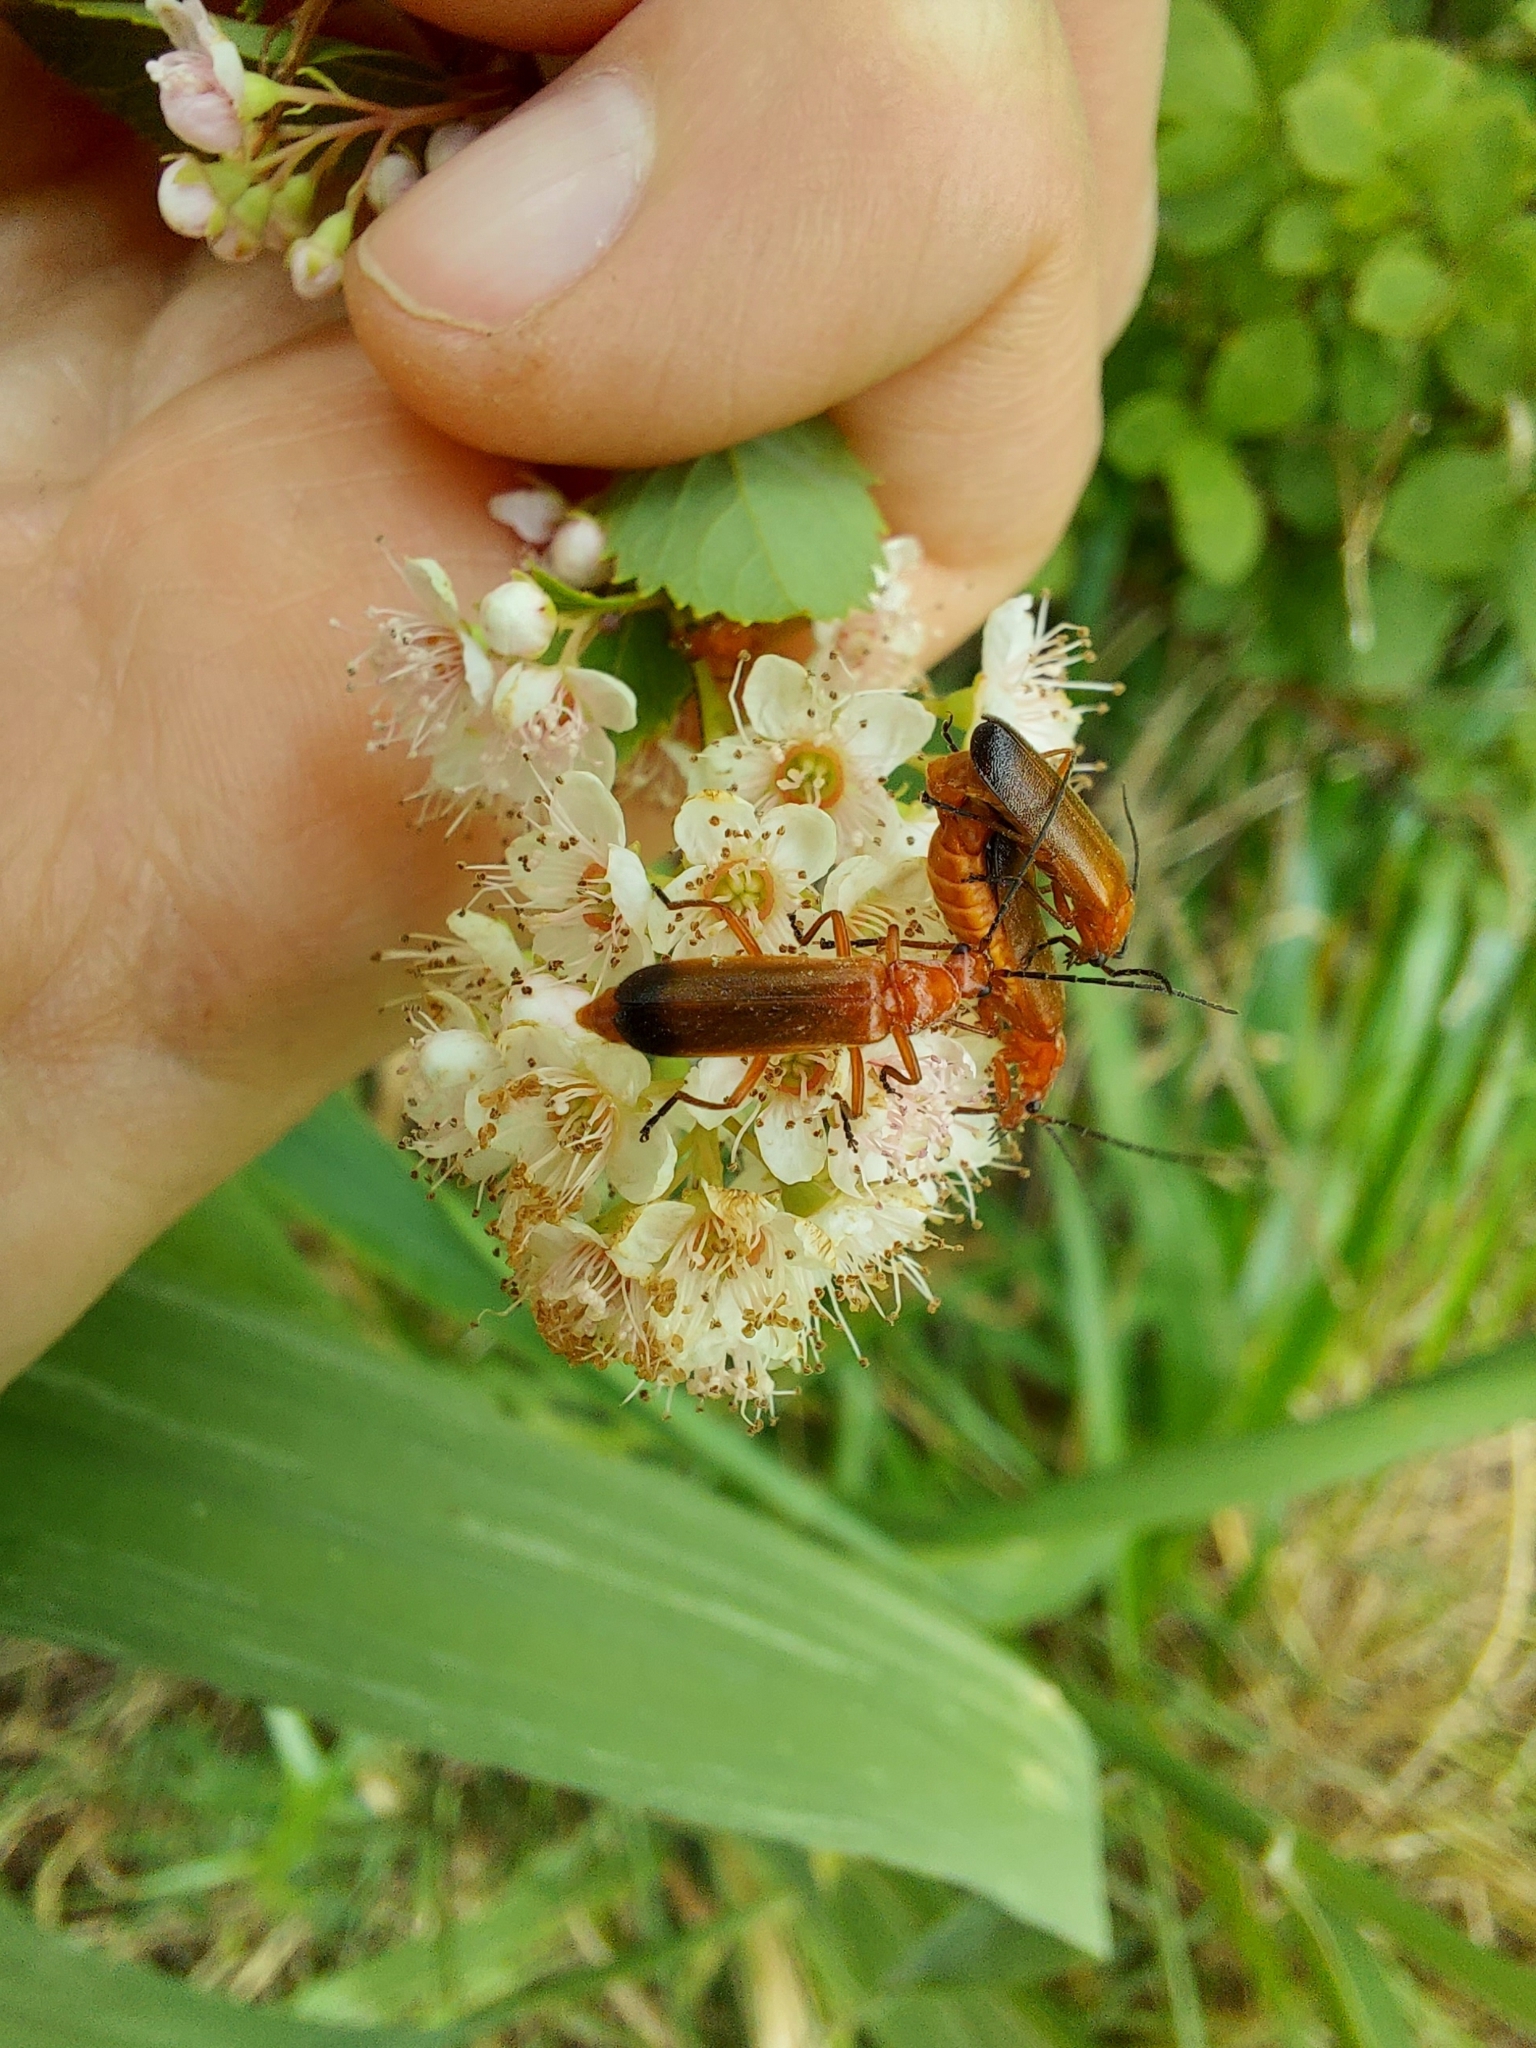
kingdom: Animalia
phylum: Arthropoda
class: Insecta
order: Coleoptera
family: Cantharidae
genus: Rhagonycha
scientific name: Rhagonycha fulva
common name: Common red soldier beetle
